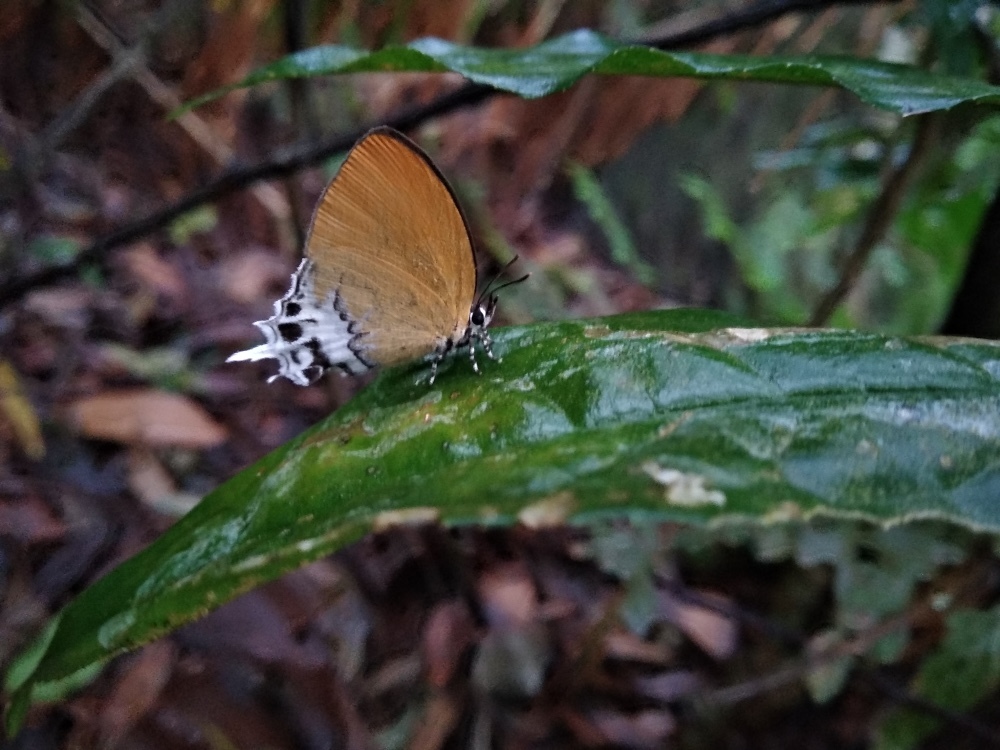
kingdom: Animalia
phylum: Arthropoda
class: Insecta
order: Lepidoptera
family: Lycaenidae
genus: Eooxylides
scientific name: Eooxylides tharis
